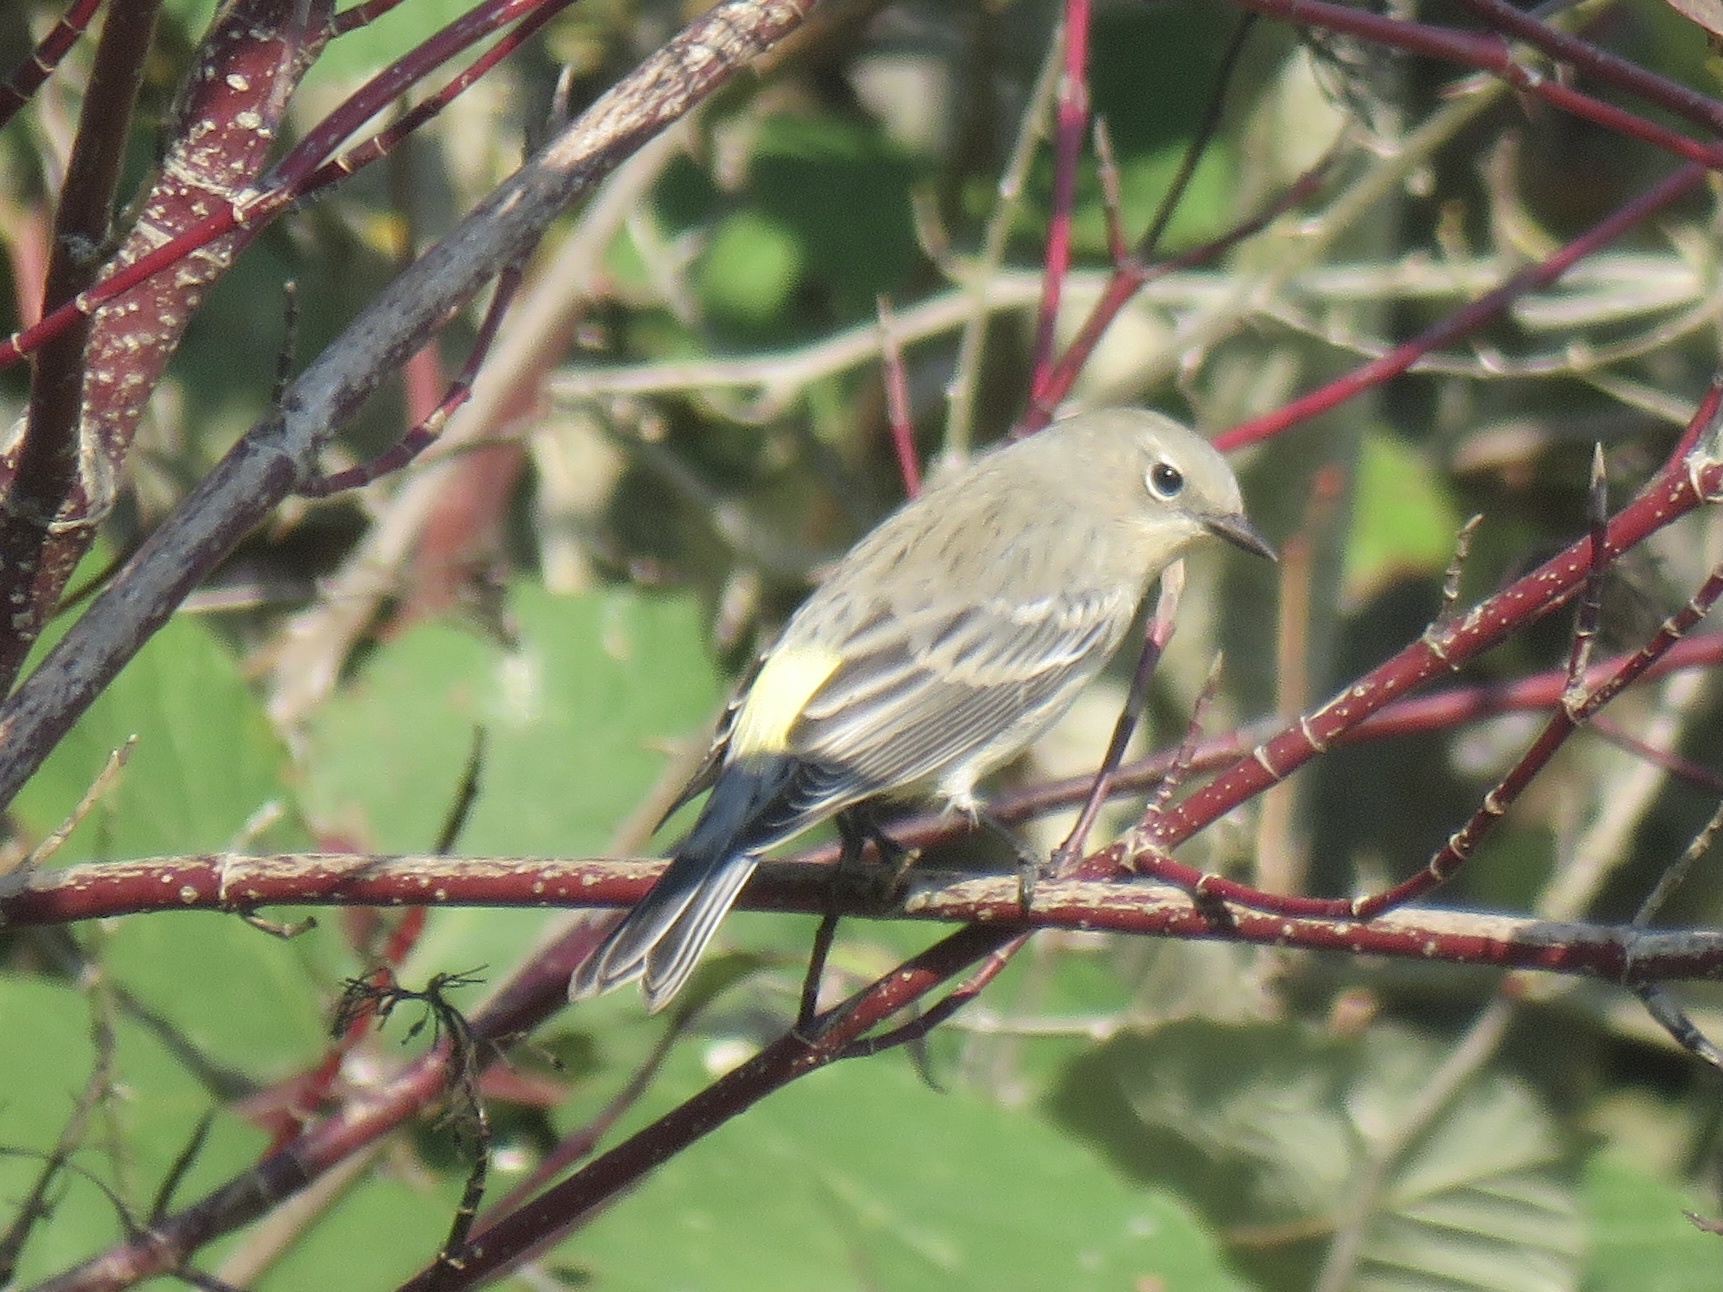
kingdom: Animalia
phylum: Chordata
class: Aves
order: Passeriformes
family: Parulidae
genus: Setophaga
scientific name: Setophaga coronata
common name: Myrtle warbler
